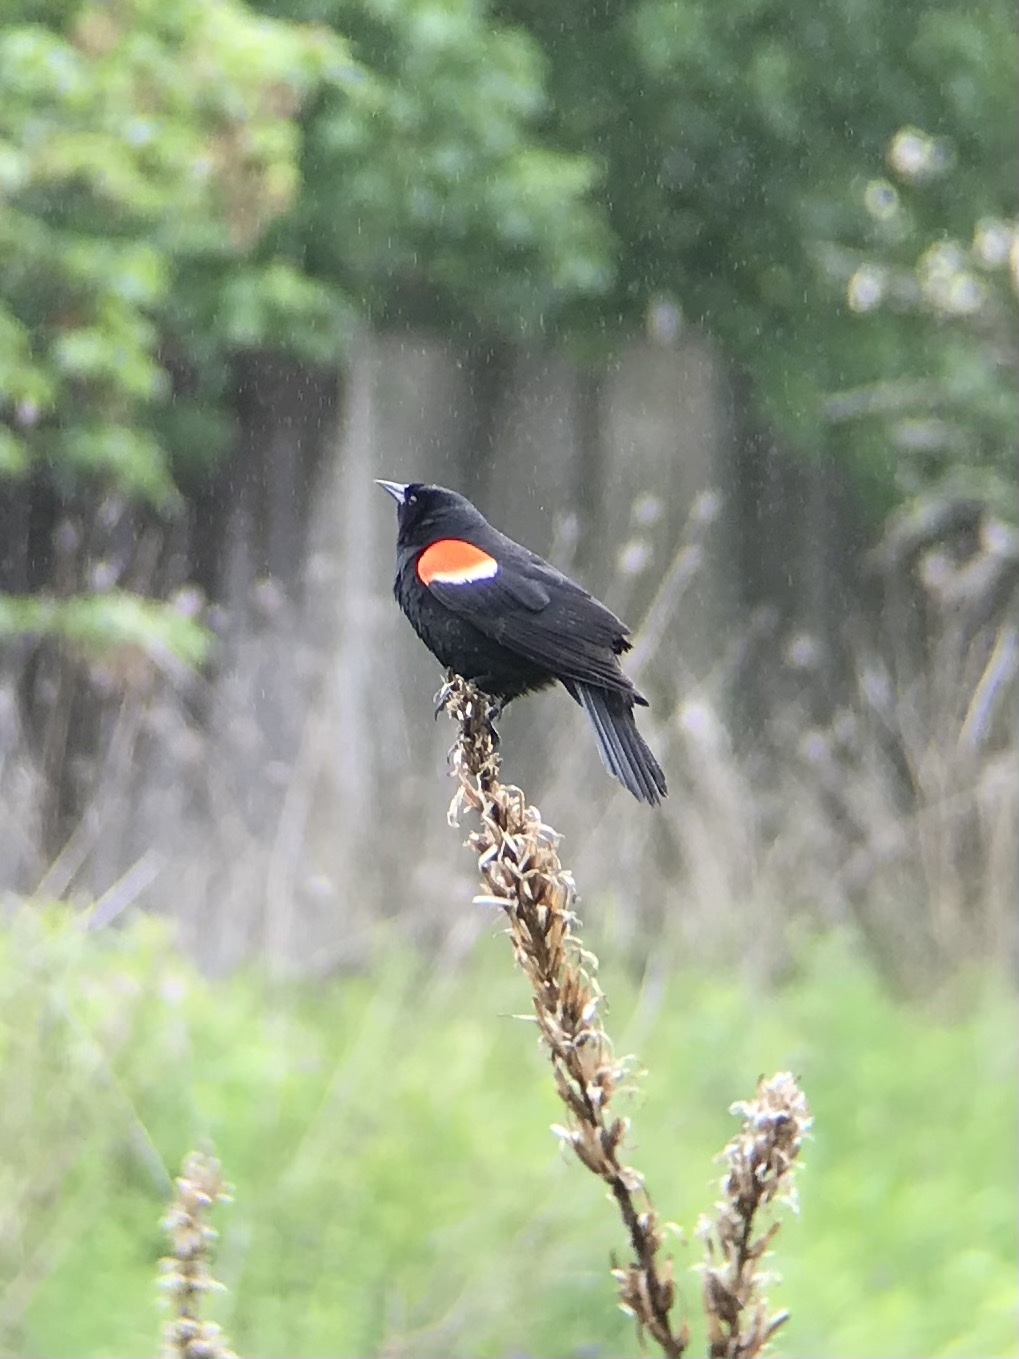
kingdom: Animalia
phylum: Chordata
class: Aves
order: Passeriformes
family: Icteridae
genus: Agelaius
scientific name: Agelaius phoeniceus
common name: Red-winged blackbird
